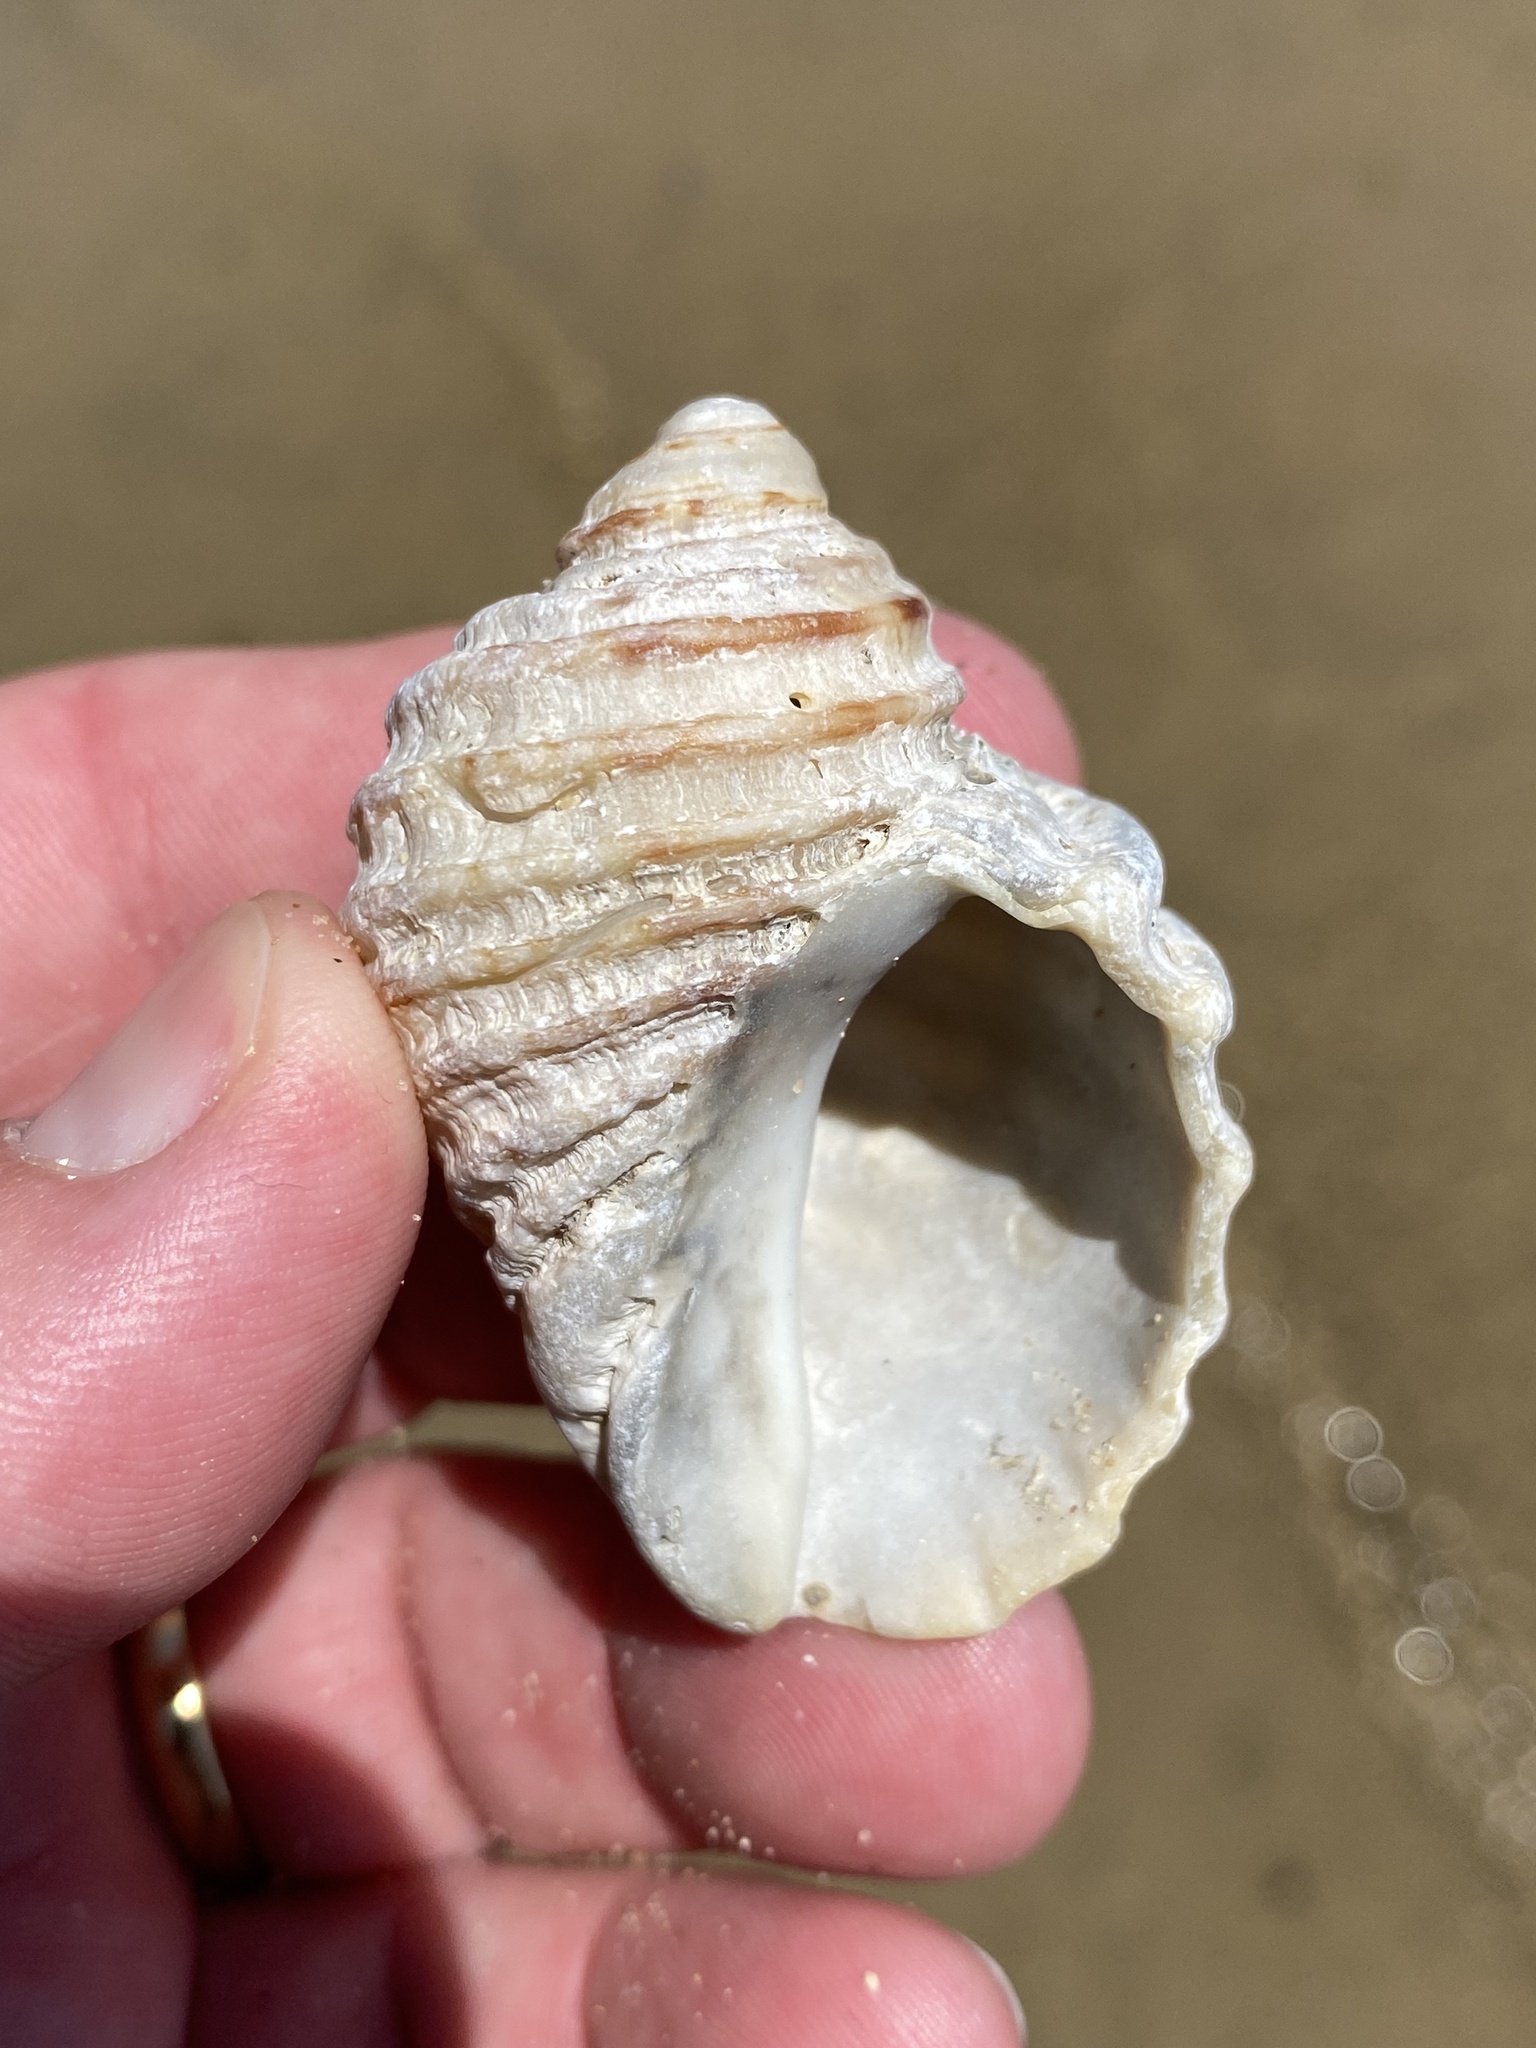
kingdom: Animalia
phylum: Mollusca
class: Gastropoda
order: Neogastropoda
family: Muricidae
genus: Dicathais
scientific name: Dicathais orbita
